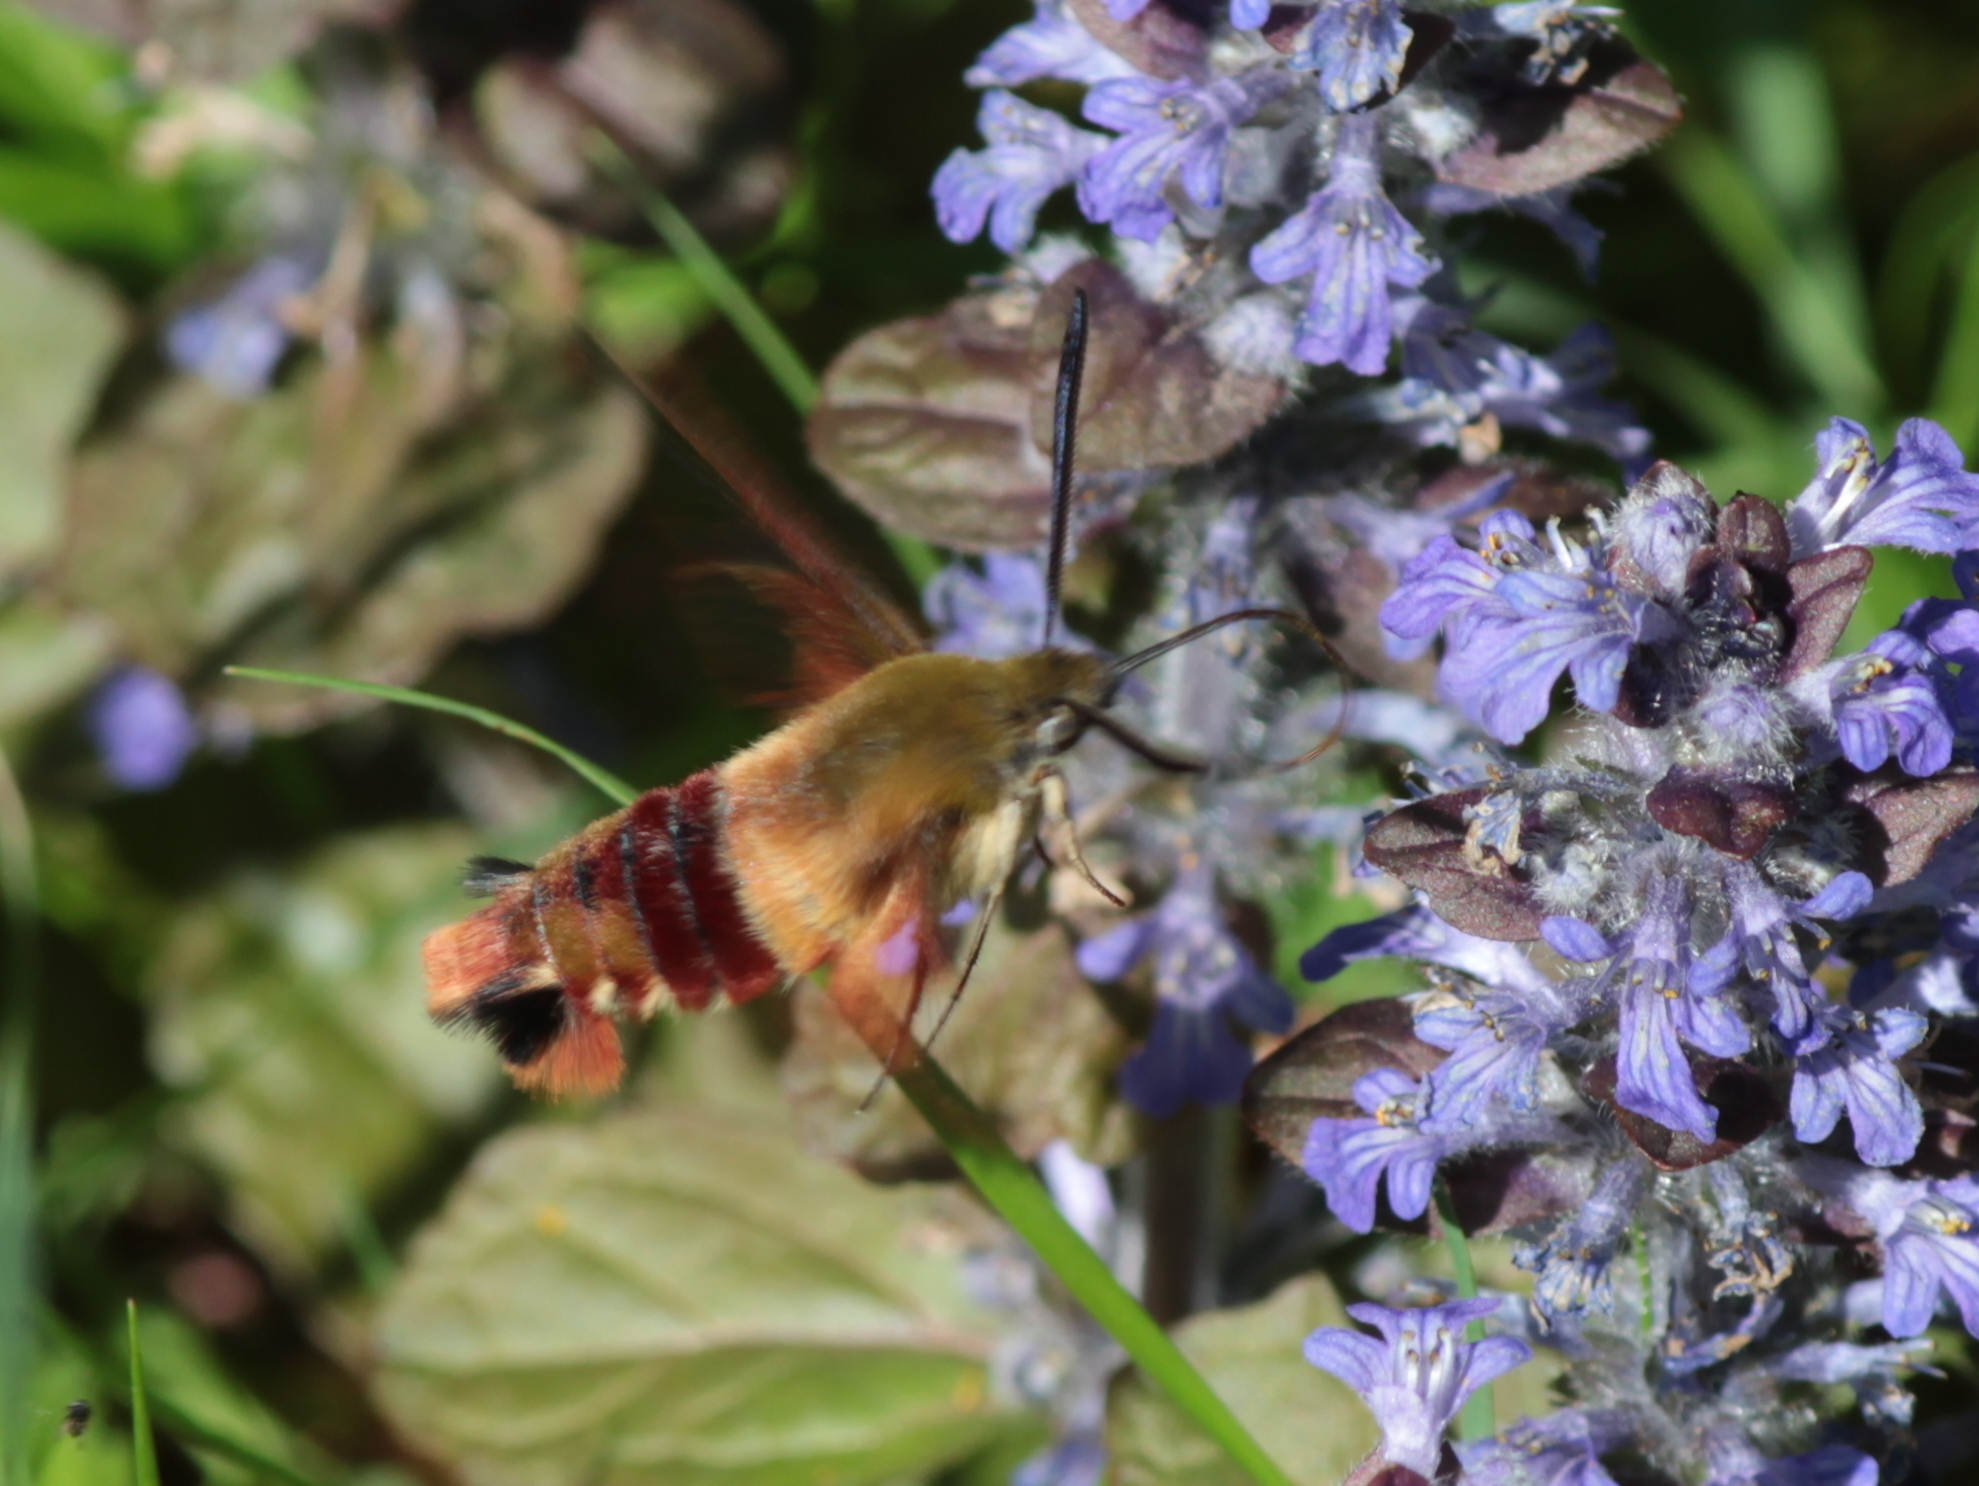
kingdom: Animalia
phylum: Arthropoda
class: Insecta
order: Lepidoptera
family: Sphingidae
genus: Hemaris
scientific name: Hemaris thysbe
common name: Common clear-wing
